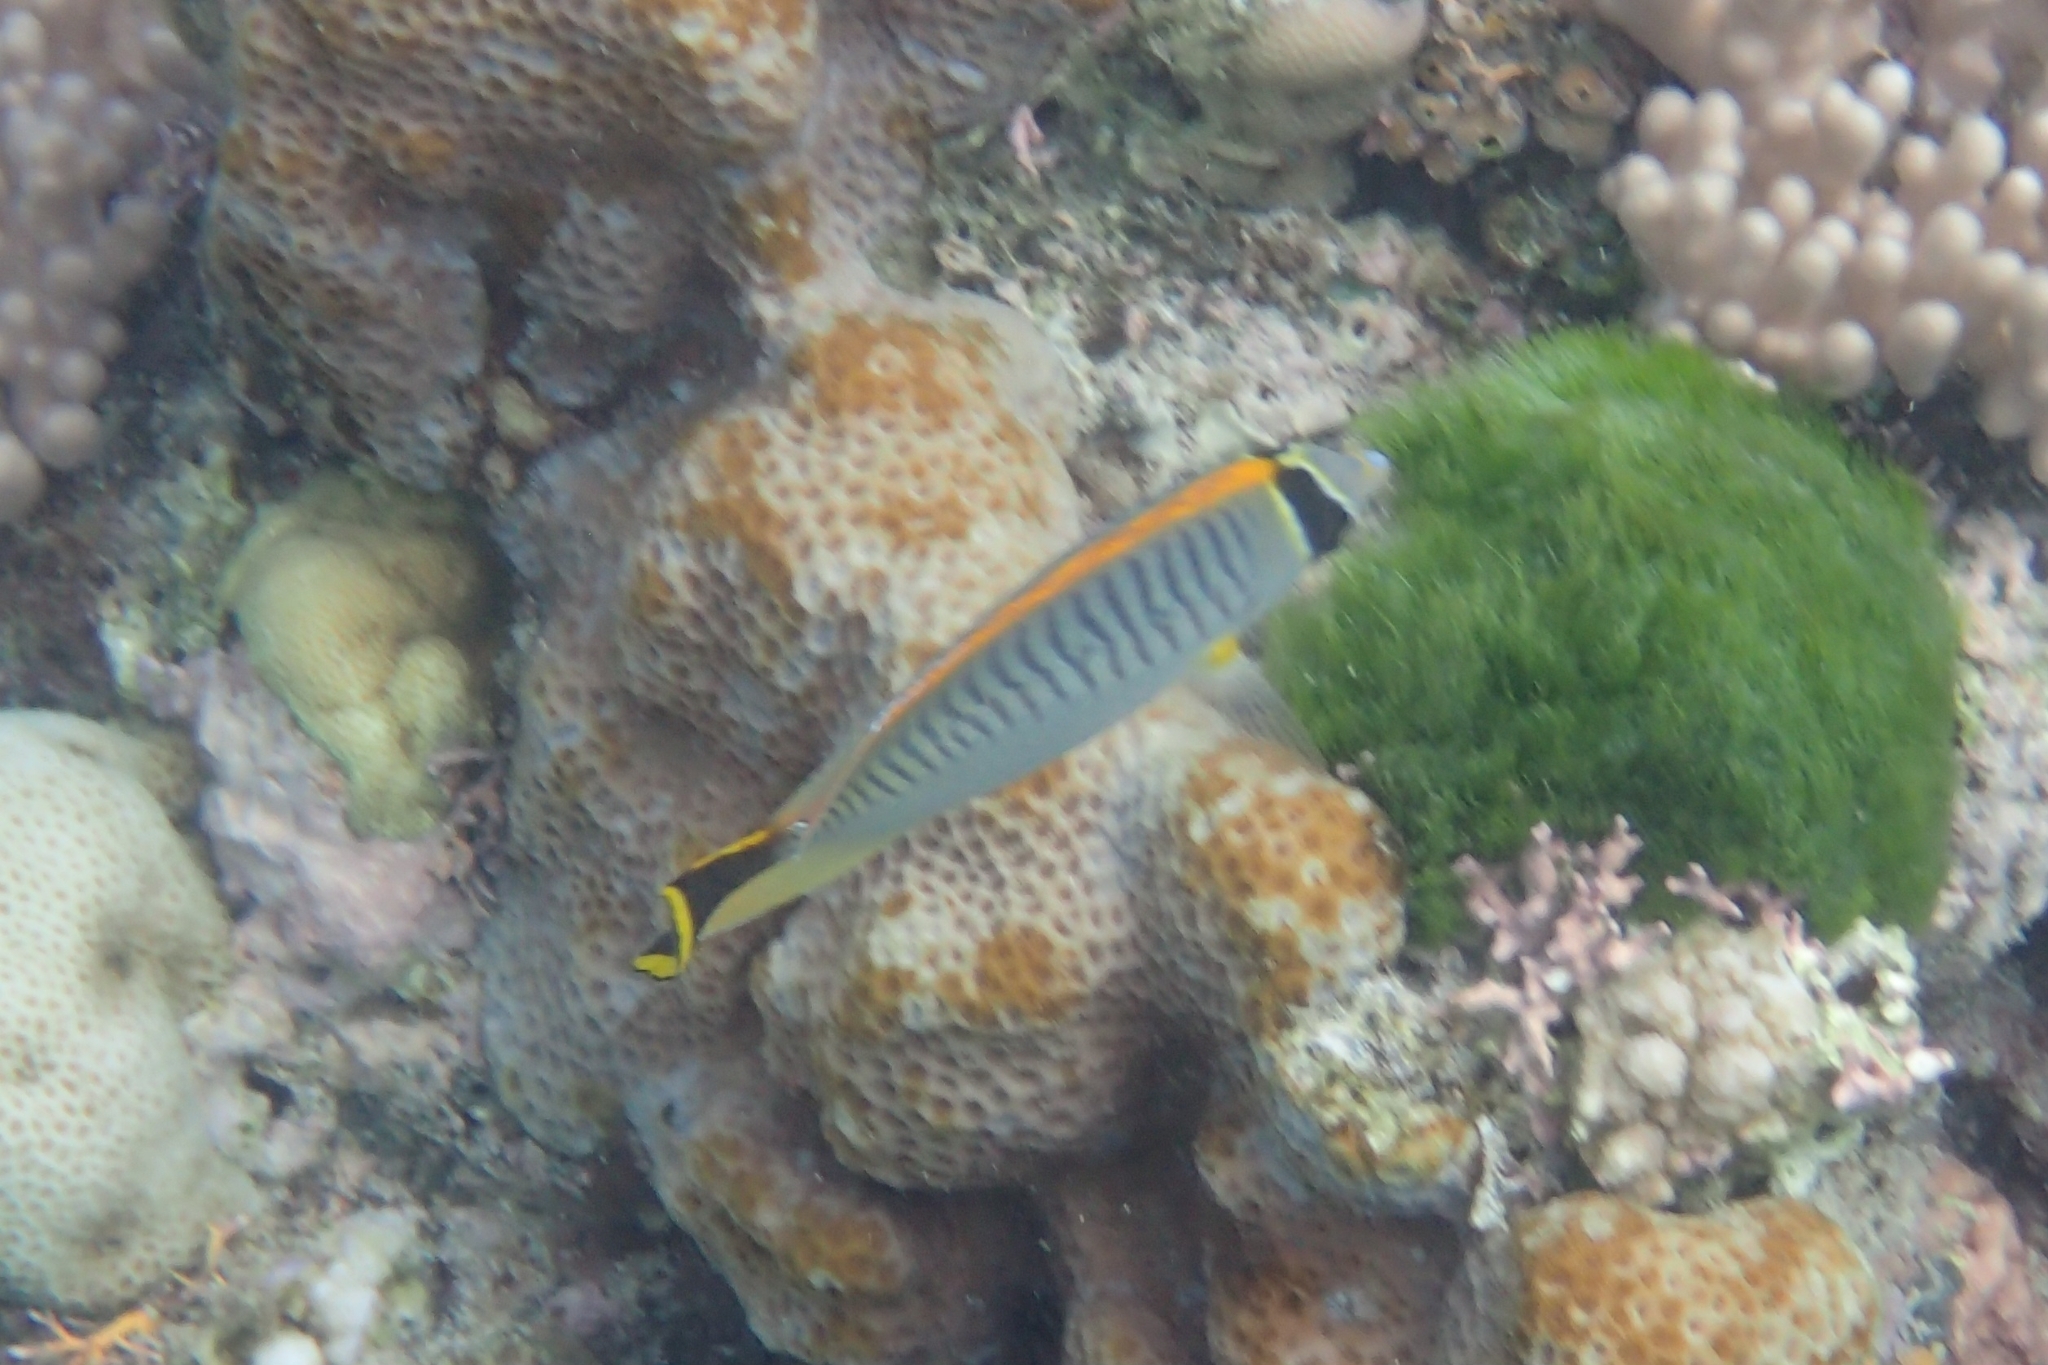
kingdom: Animalia
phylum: Chordata
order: Perciformes
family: Chaetodontidae
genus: Chaetodon
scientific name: Chaetodon trifascialis
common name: Chevroned butterflyfish
